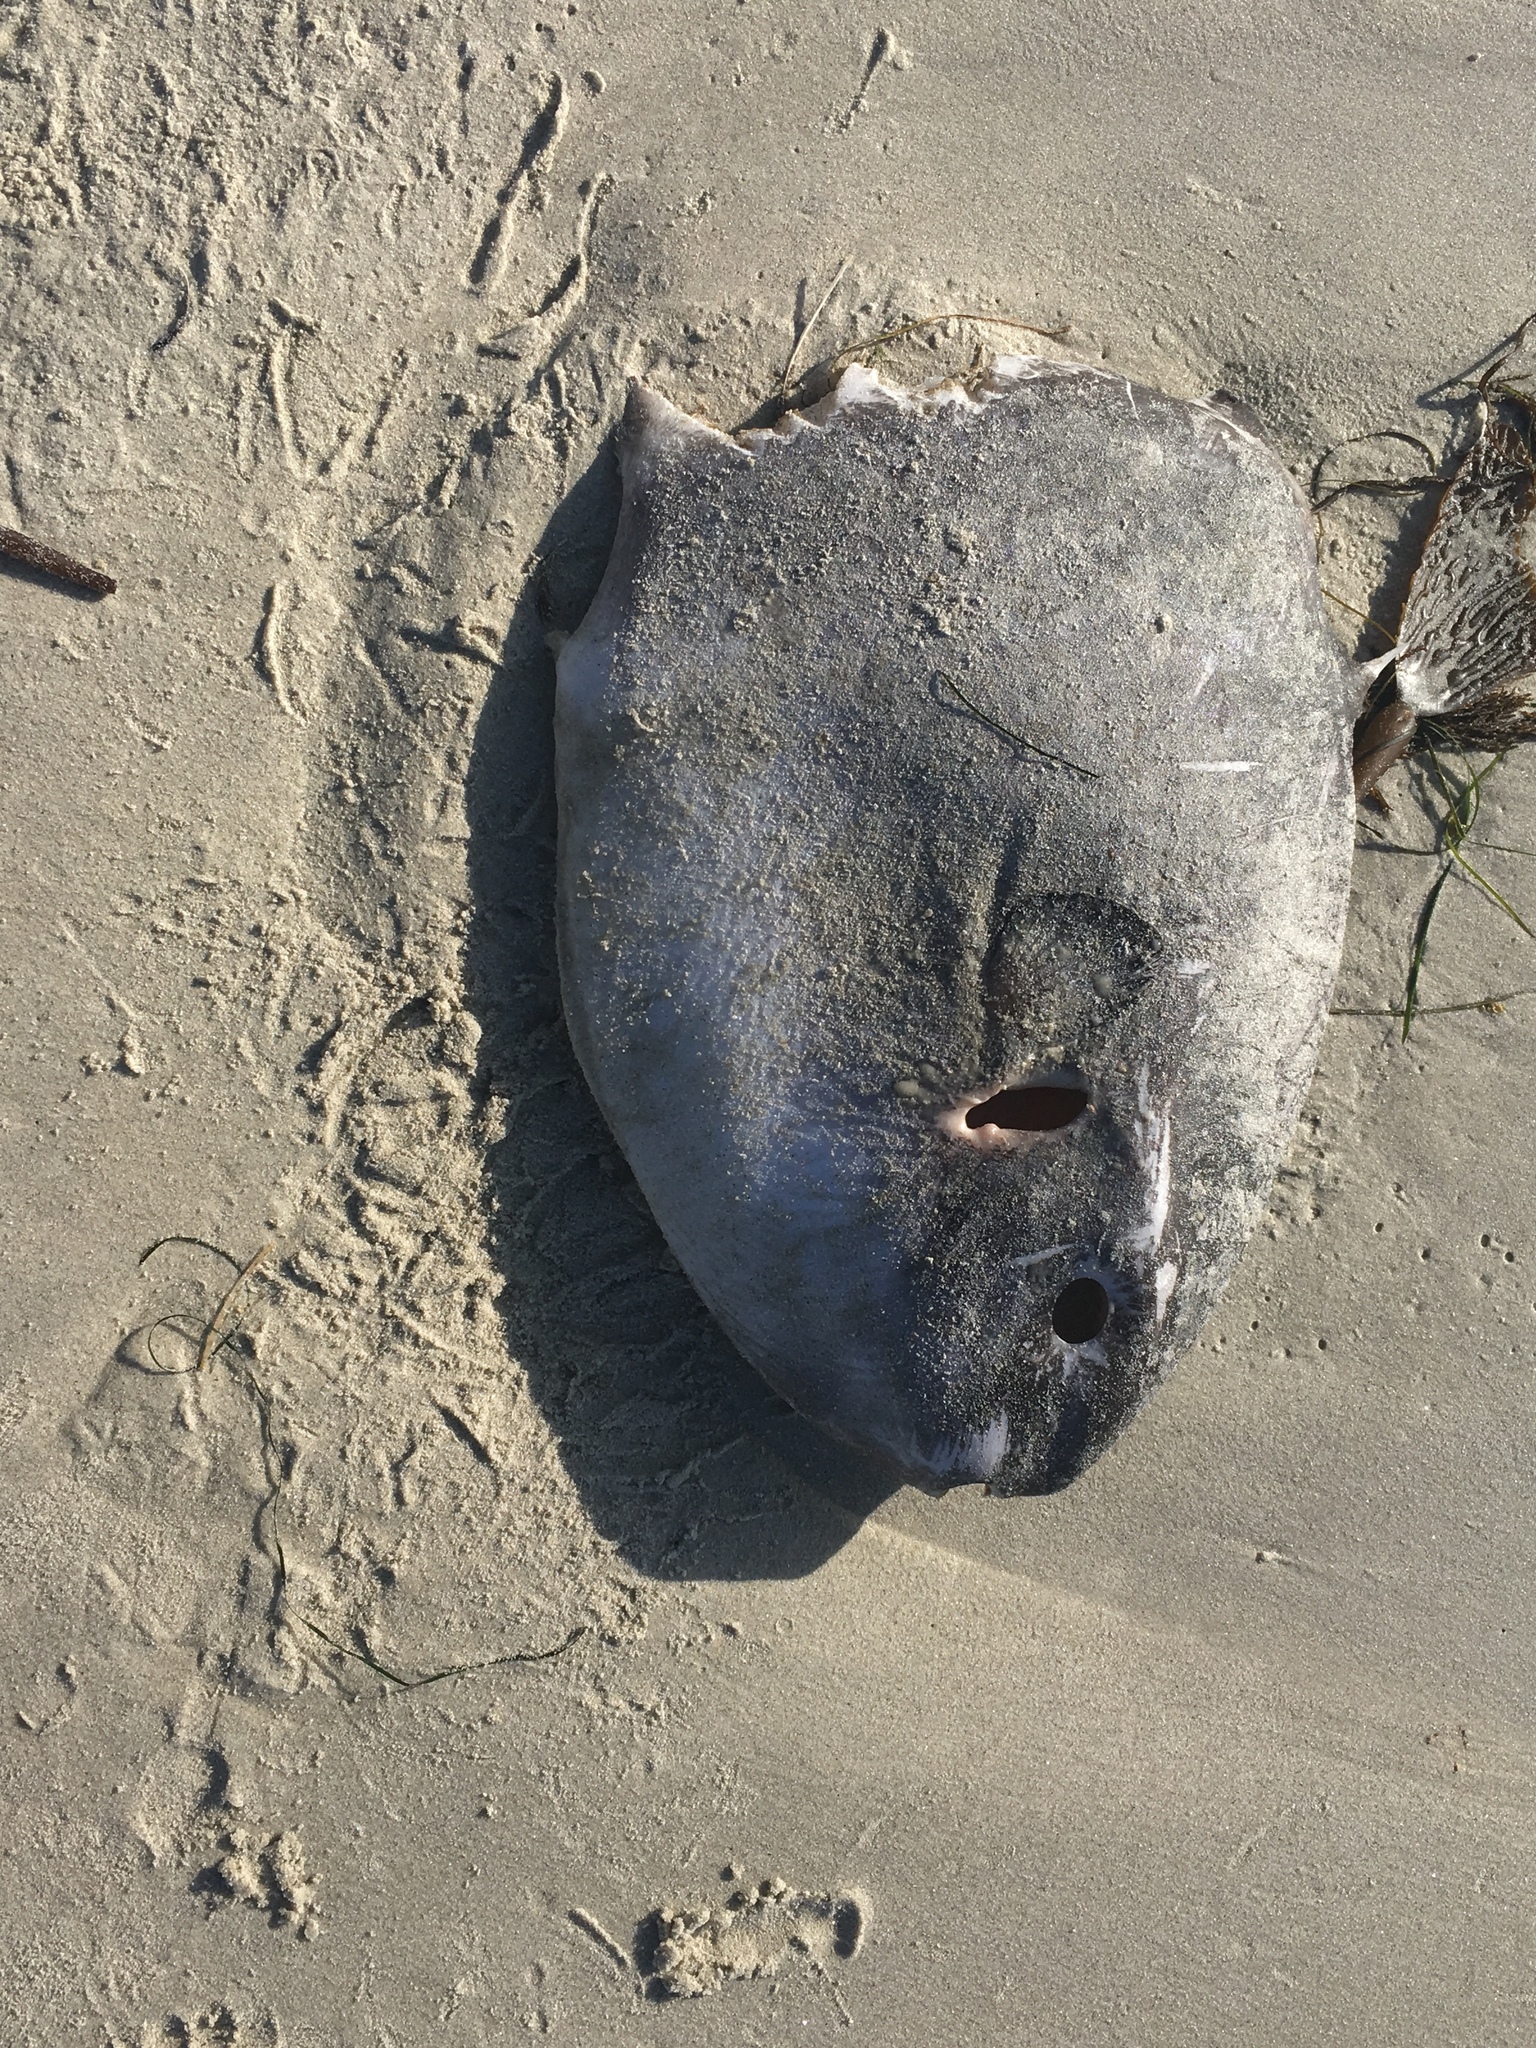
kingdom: Animalia
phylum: Chordata
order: Tetraodontiformes
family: Molidae
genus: Mola
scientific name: Mola mola
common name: Ocean sunfish
